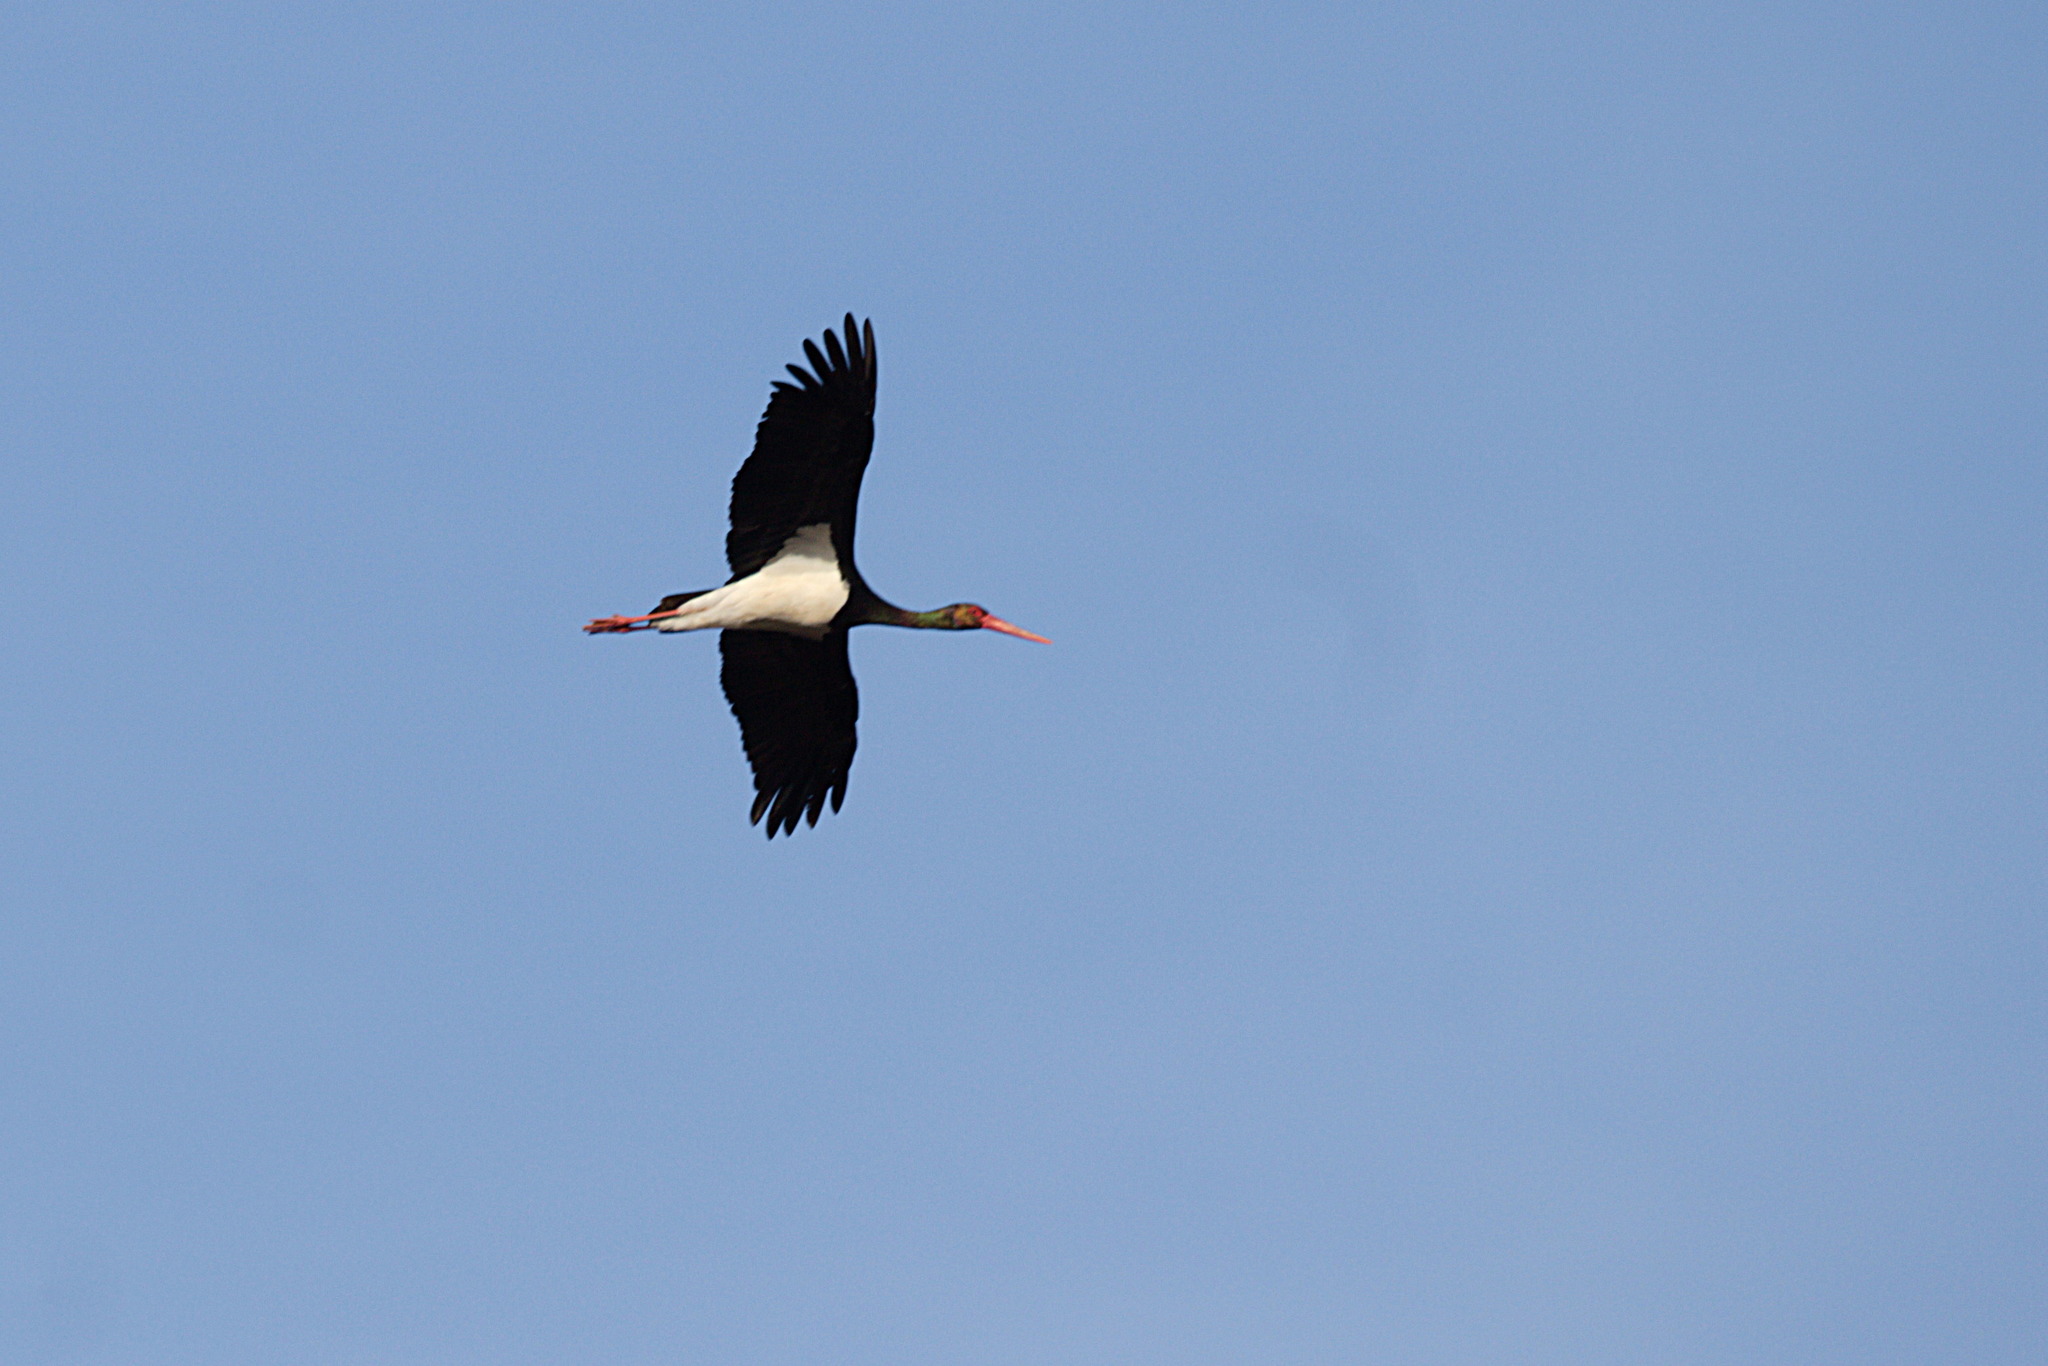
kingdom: Animalia
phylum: Chordata
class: Aves
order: Ciconiiformes
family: Ciconiidae
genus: Ciconia
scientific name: Ciconia nigra
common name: Black stork
